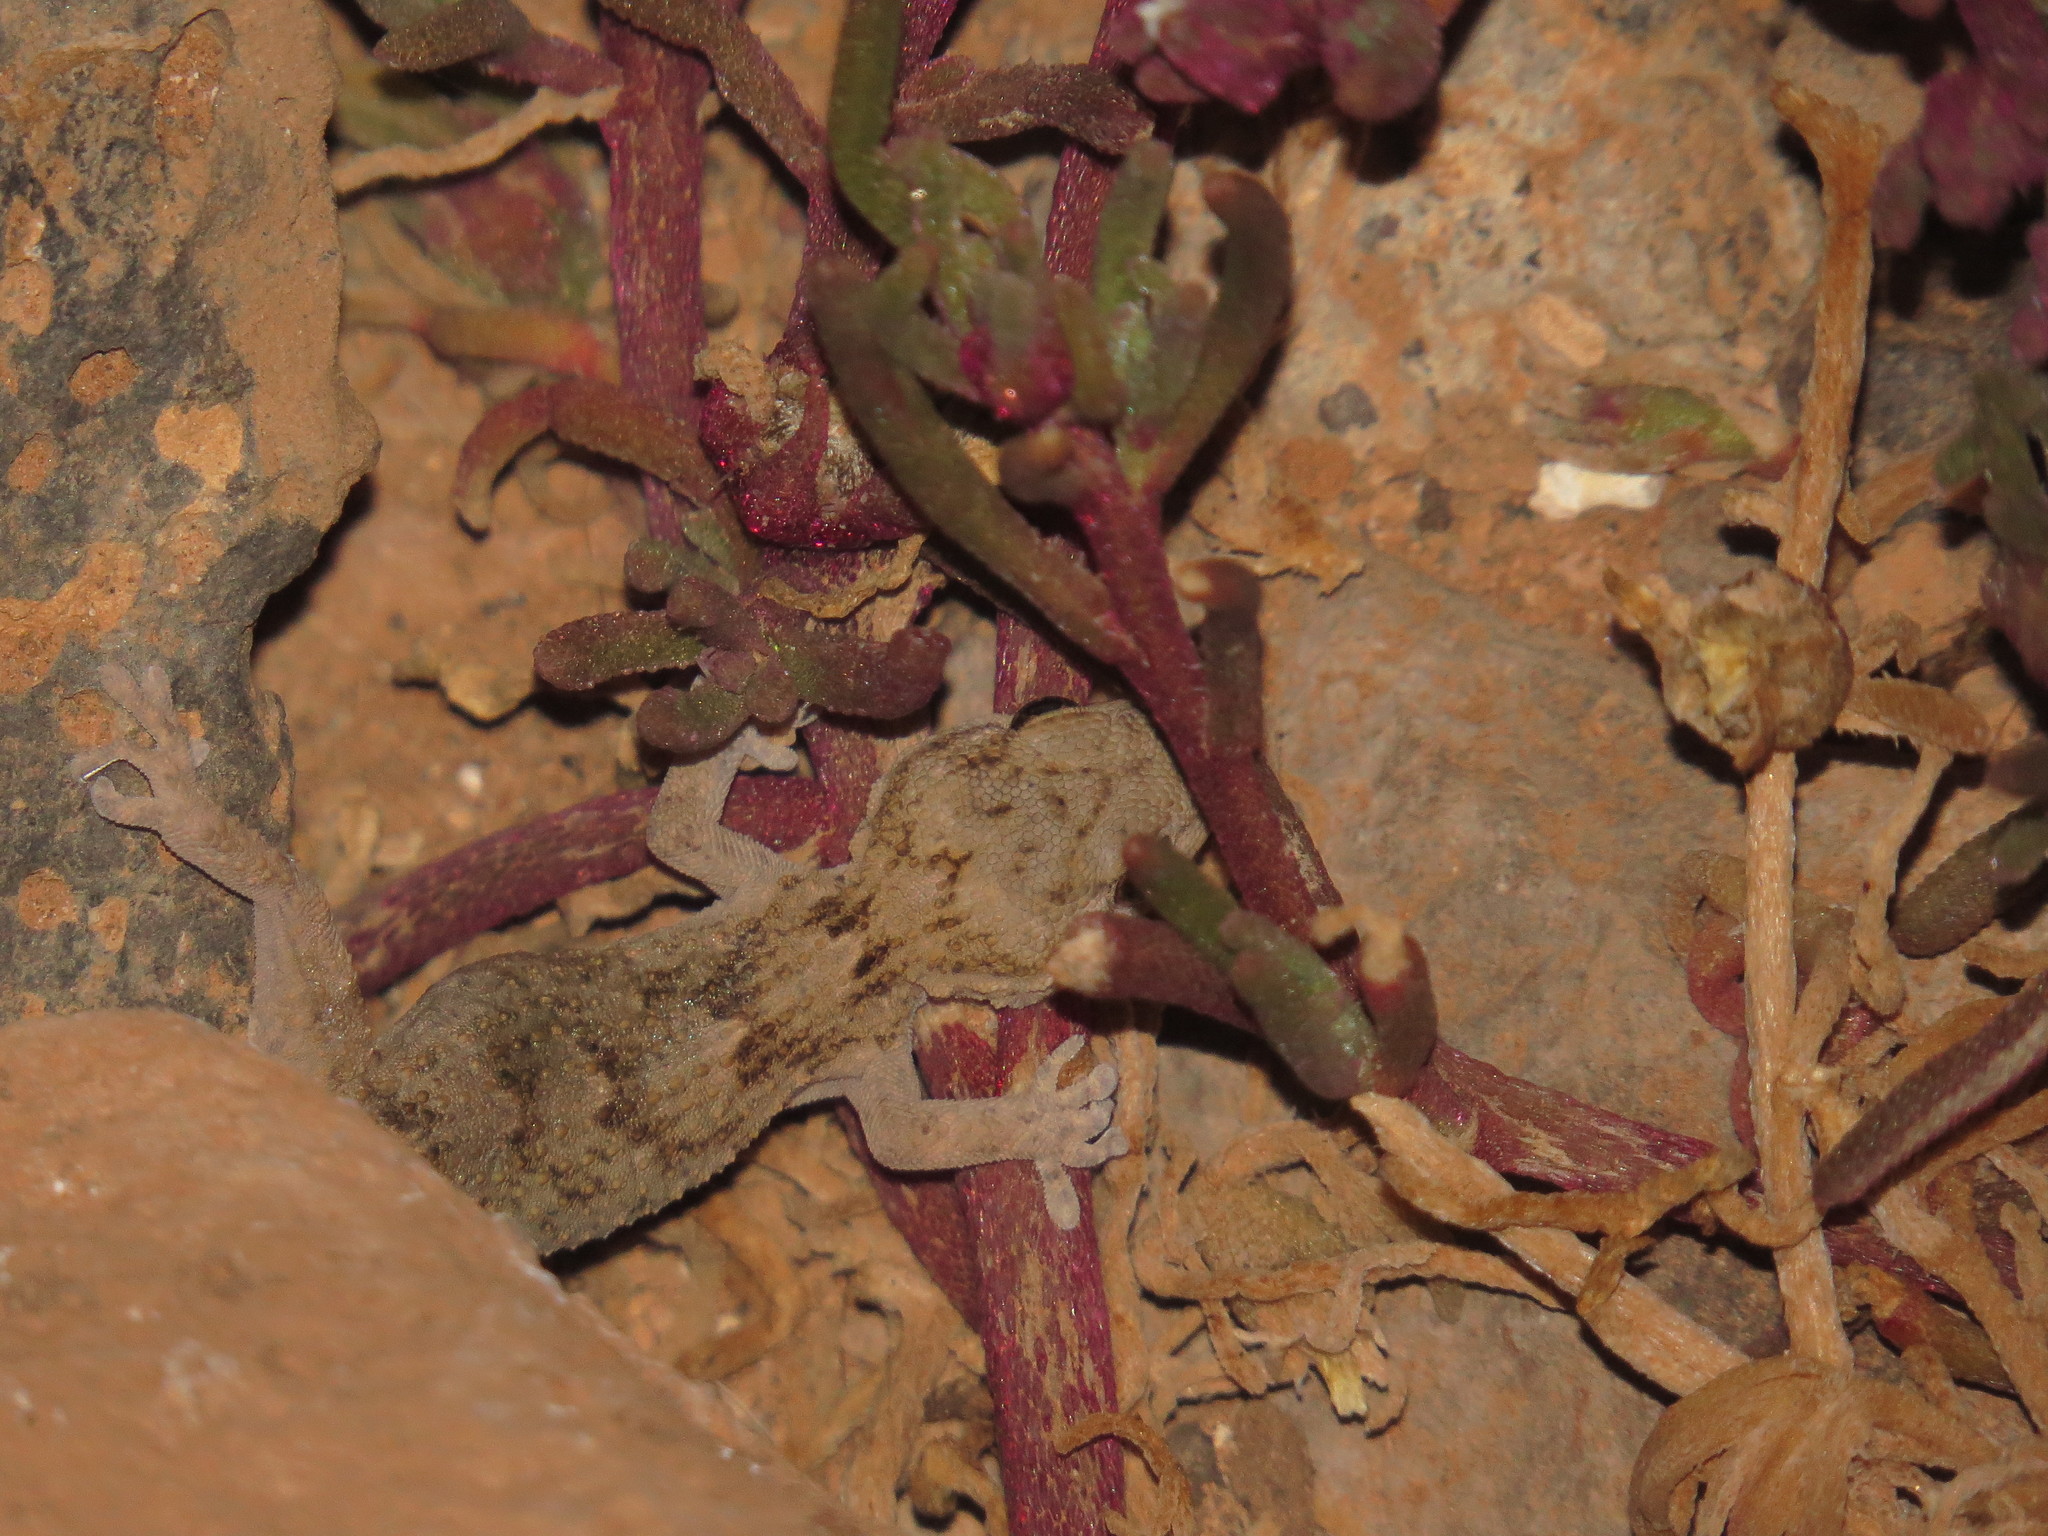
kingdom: Animalia
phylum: Chordata
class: Squamata
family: Phyllodactylidae
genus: Tarentola
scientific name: Tarentola angustimentalis
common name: East canary gecko
